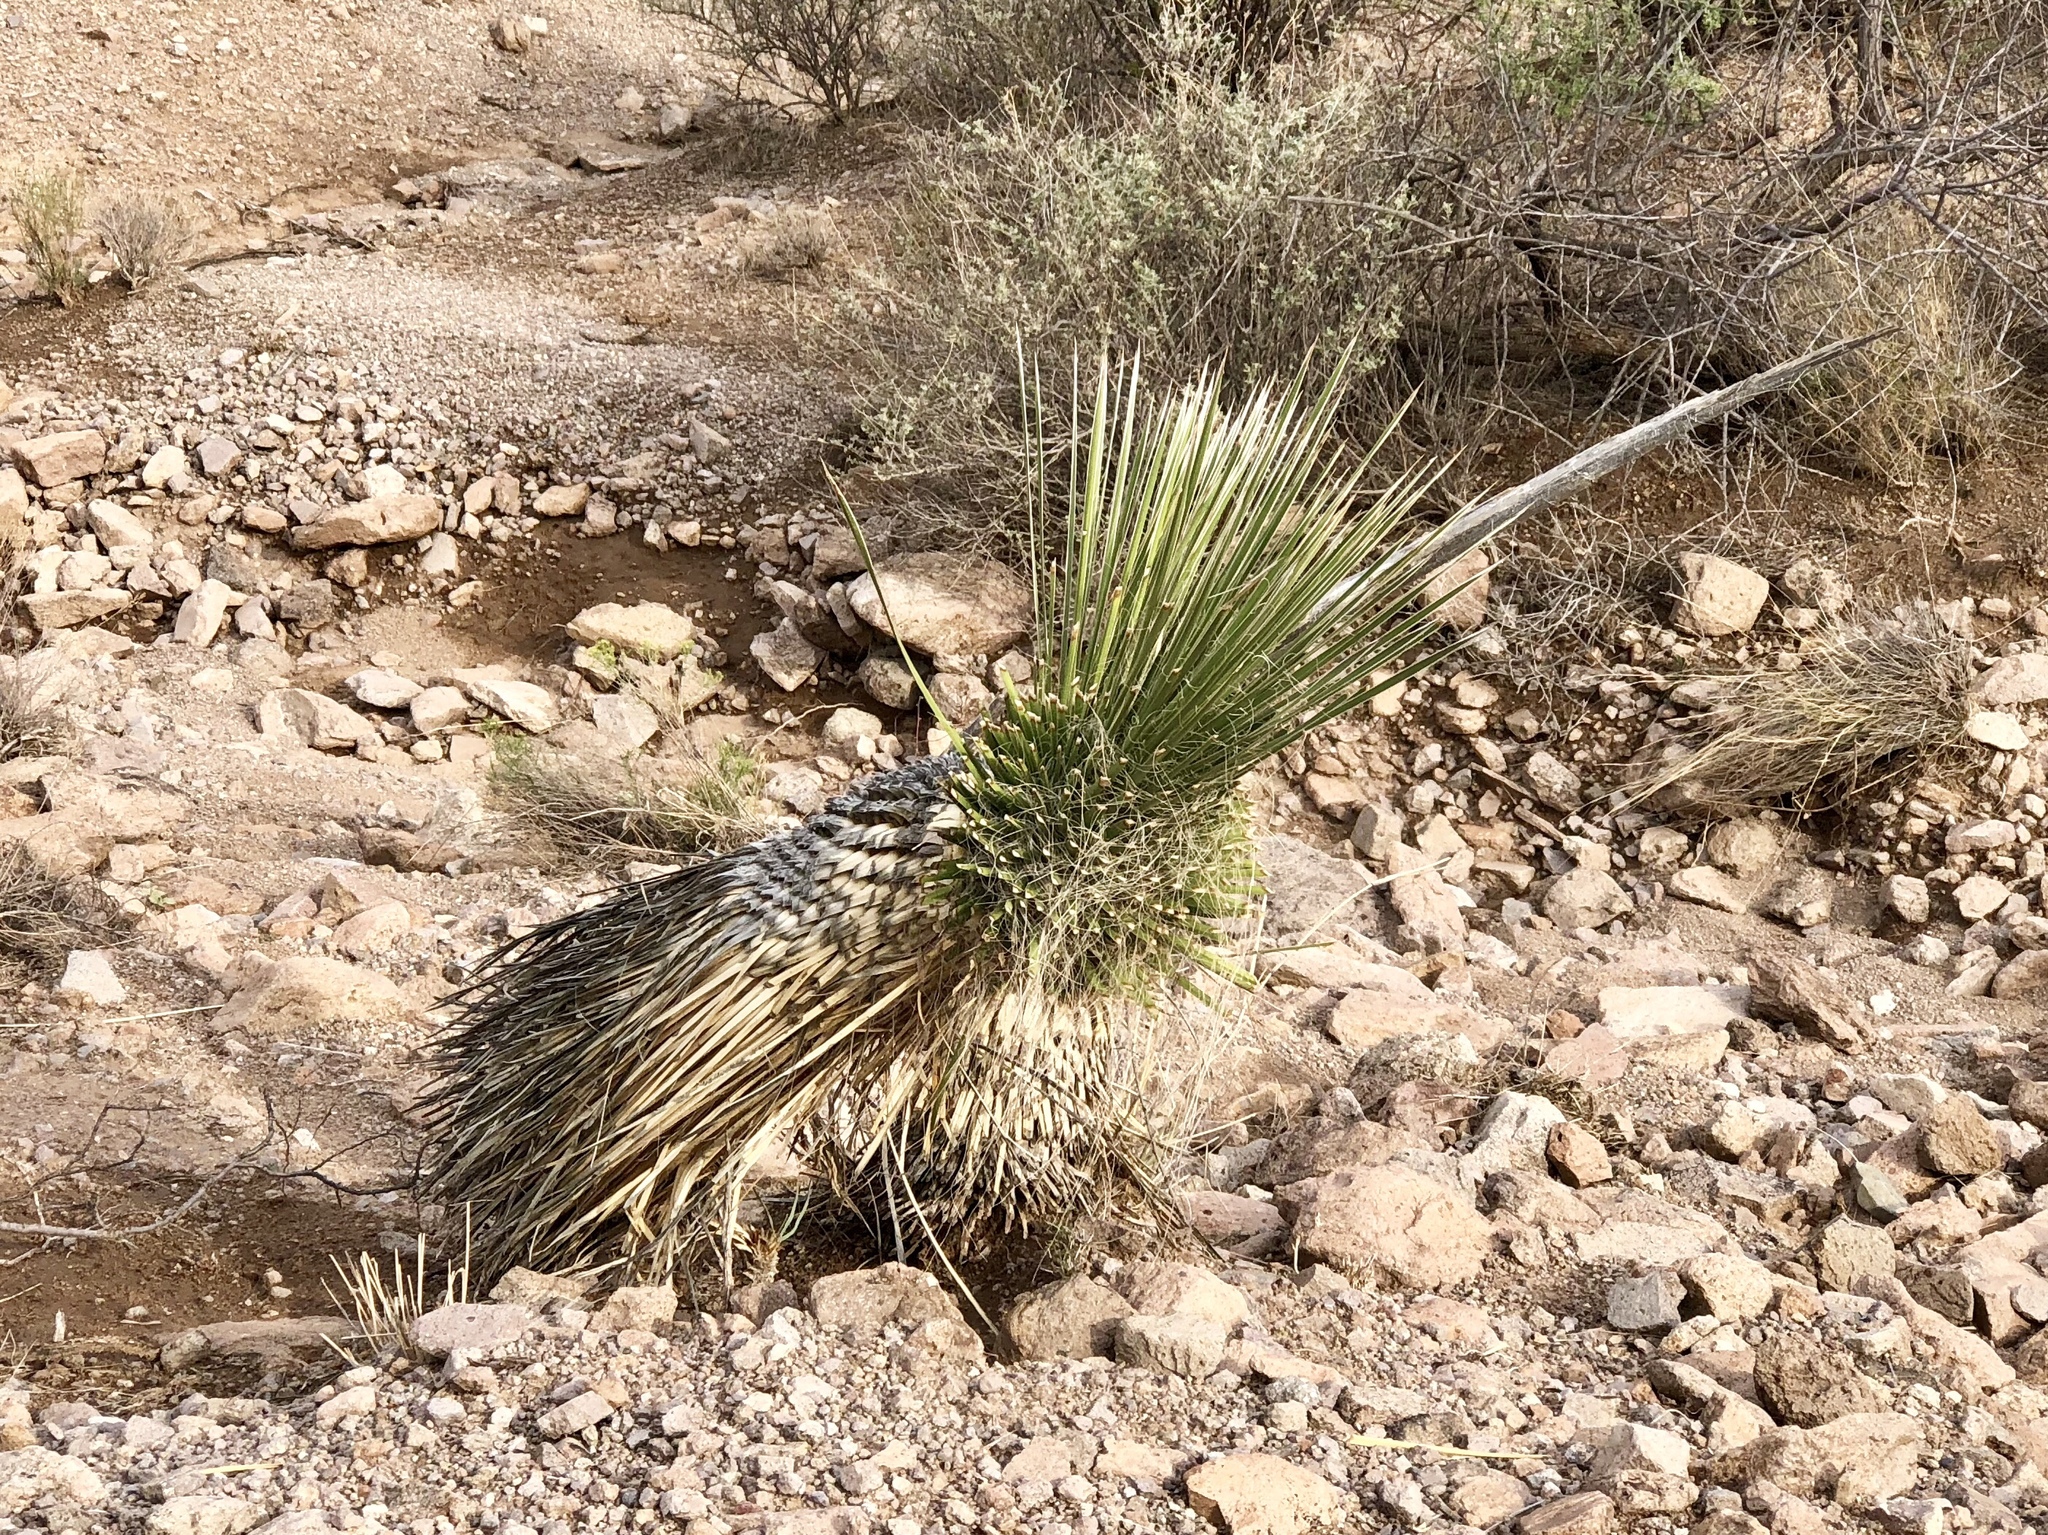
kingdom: Plantae
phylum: Tracheophyta
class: Liliopsida
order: Asparagales
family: Asparagaceae
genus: Yucca
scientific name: Yucca elata
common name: Palmella
